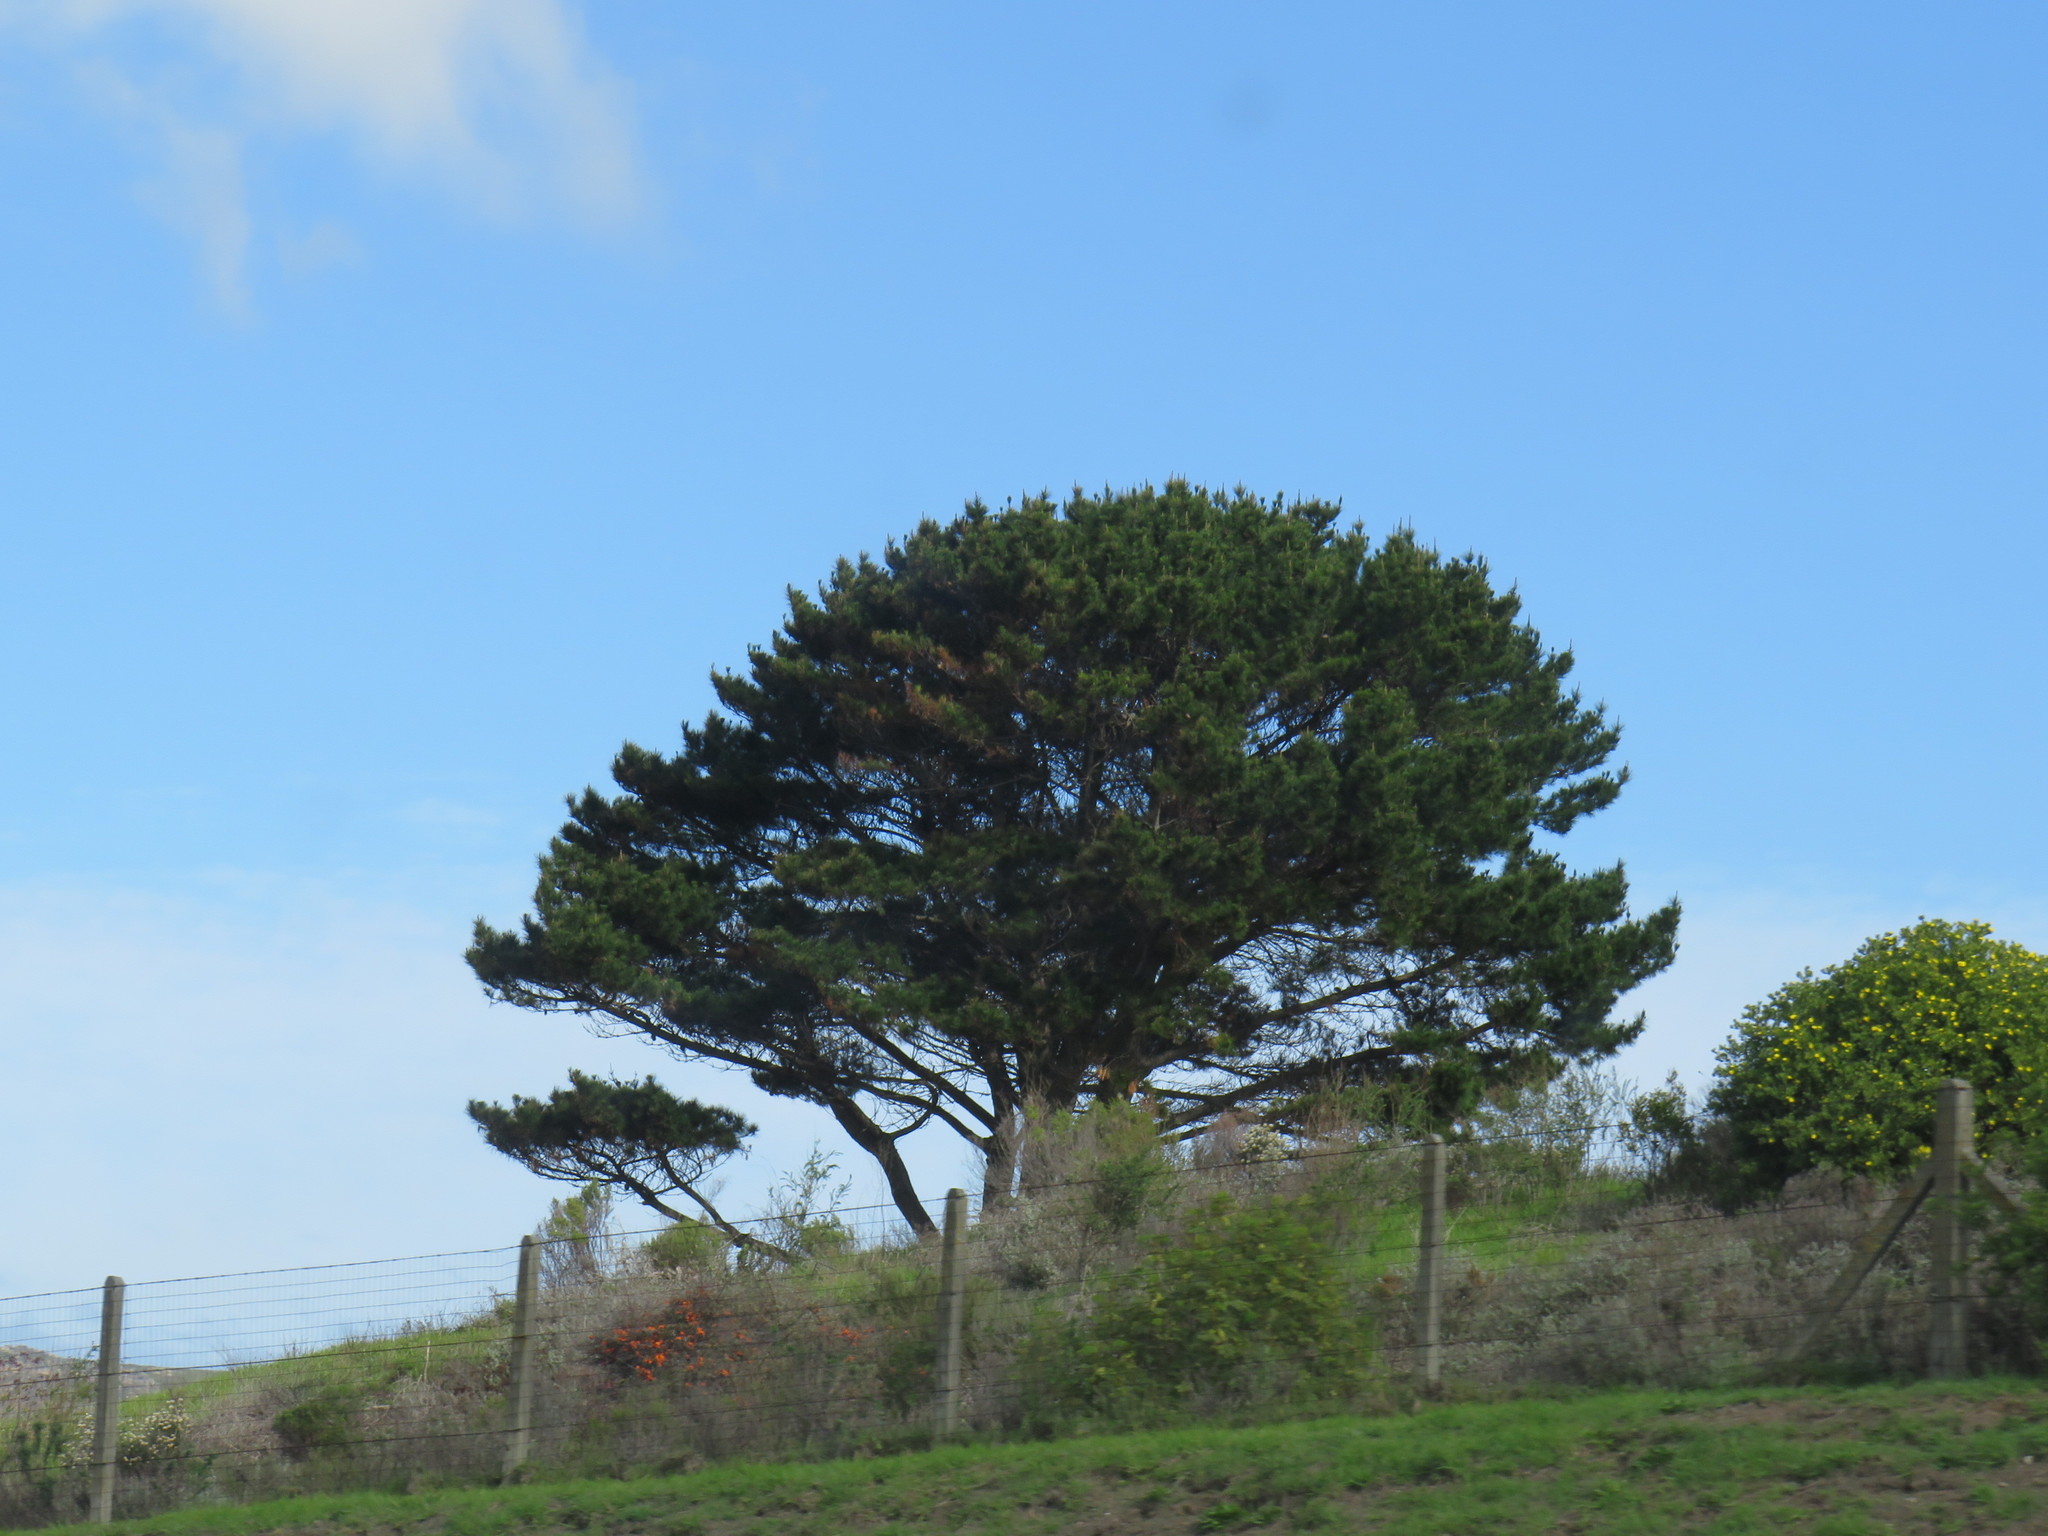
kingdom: Plantae
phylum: Tracheophyta
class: Pinopsida
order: Pinales
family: Pinaceae
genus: Pinus
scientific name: Pinus radiata
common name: Monterey pine
